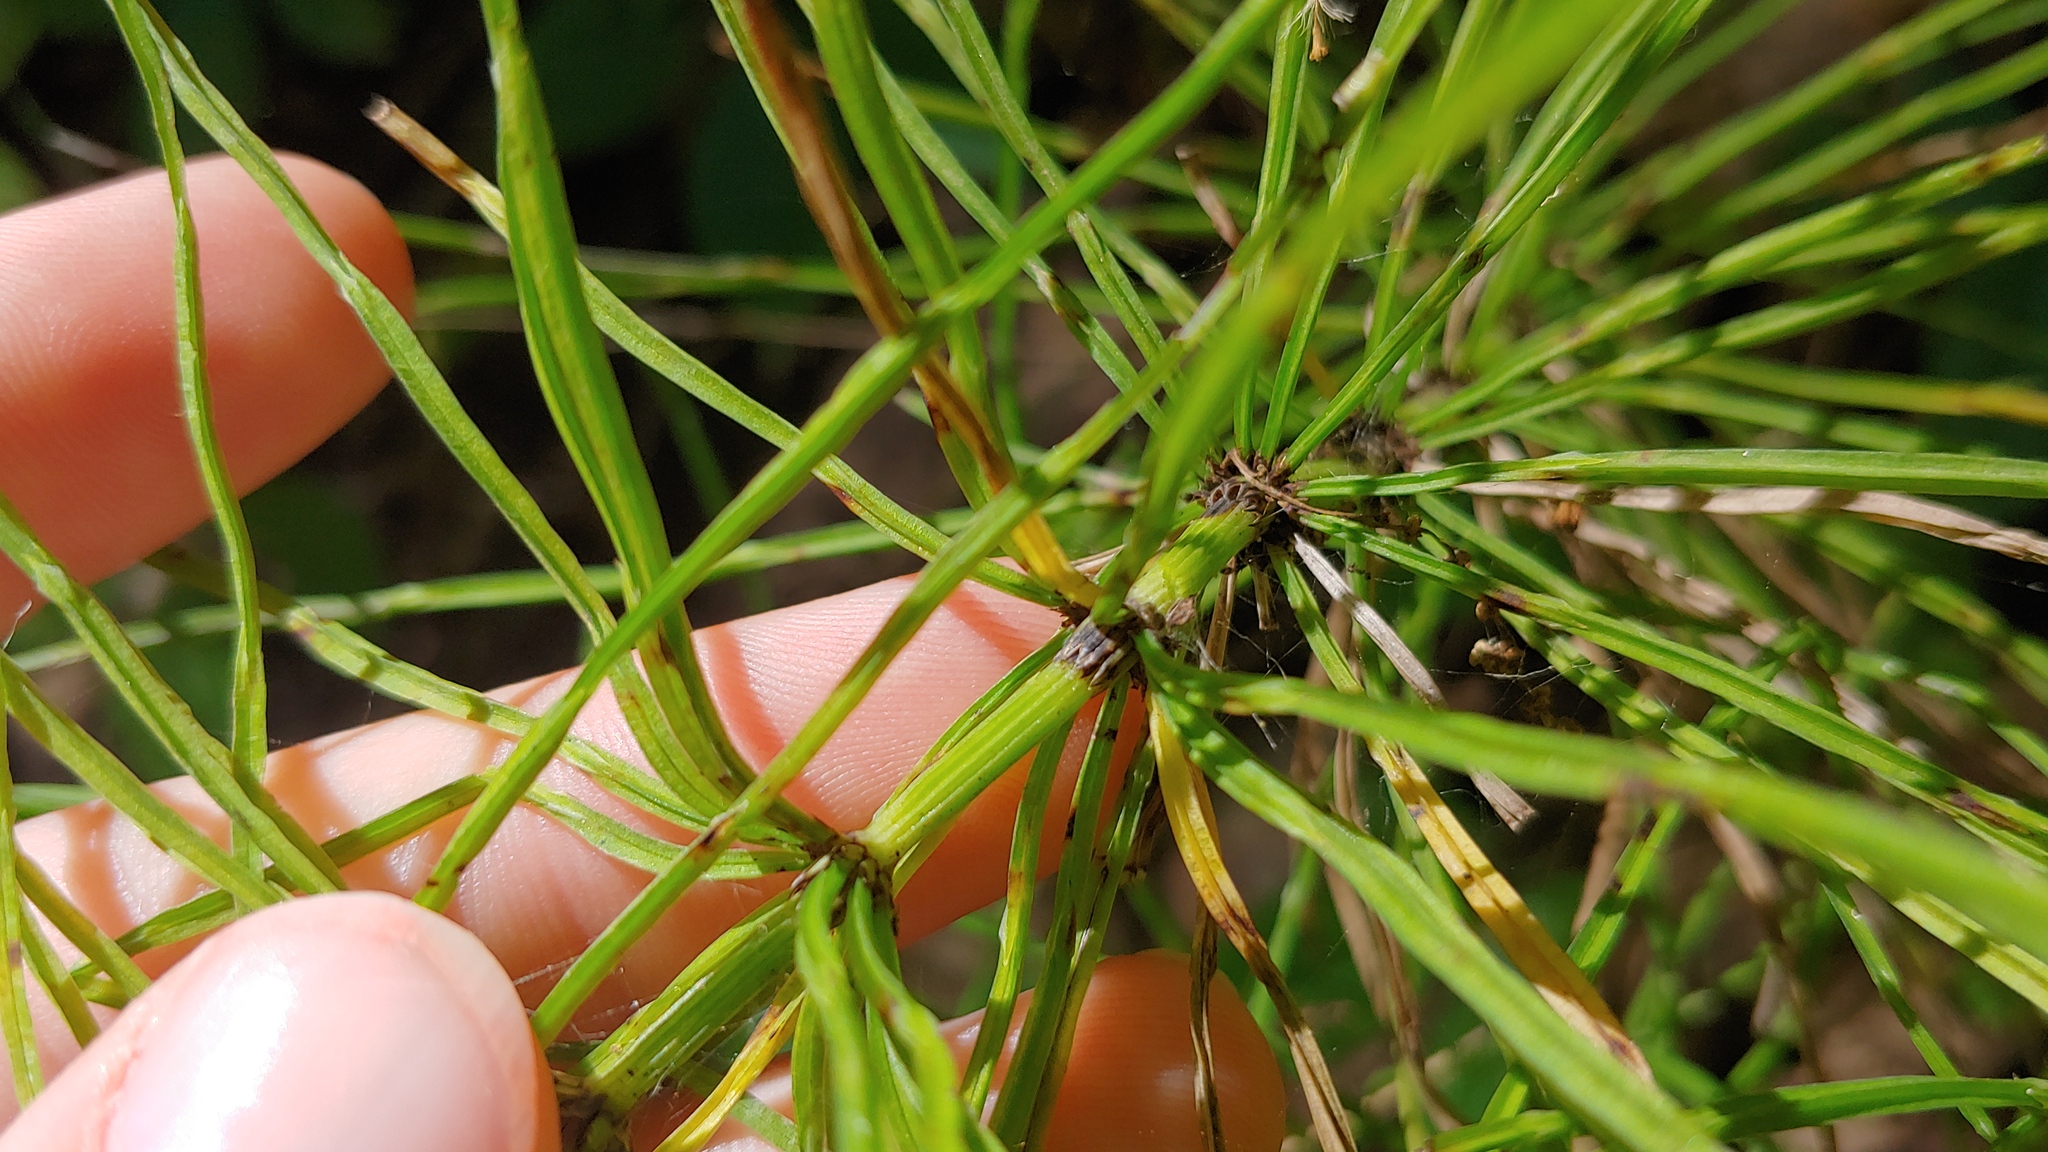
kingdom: Plantae
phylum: Tracheophyta
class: Polypodiopsida
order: Equisetales
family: Equisetaceae
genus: Equisetum
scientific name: Equisetum arvense
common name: Field horsetail
